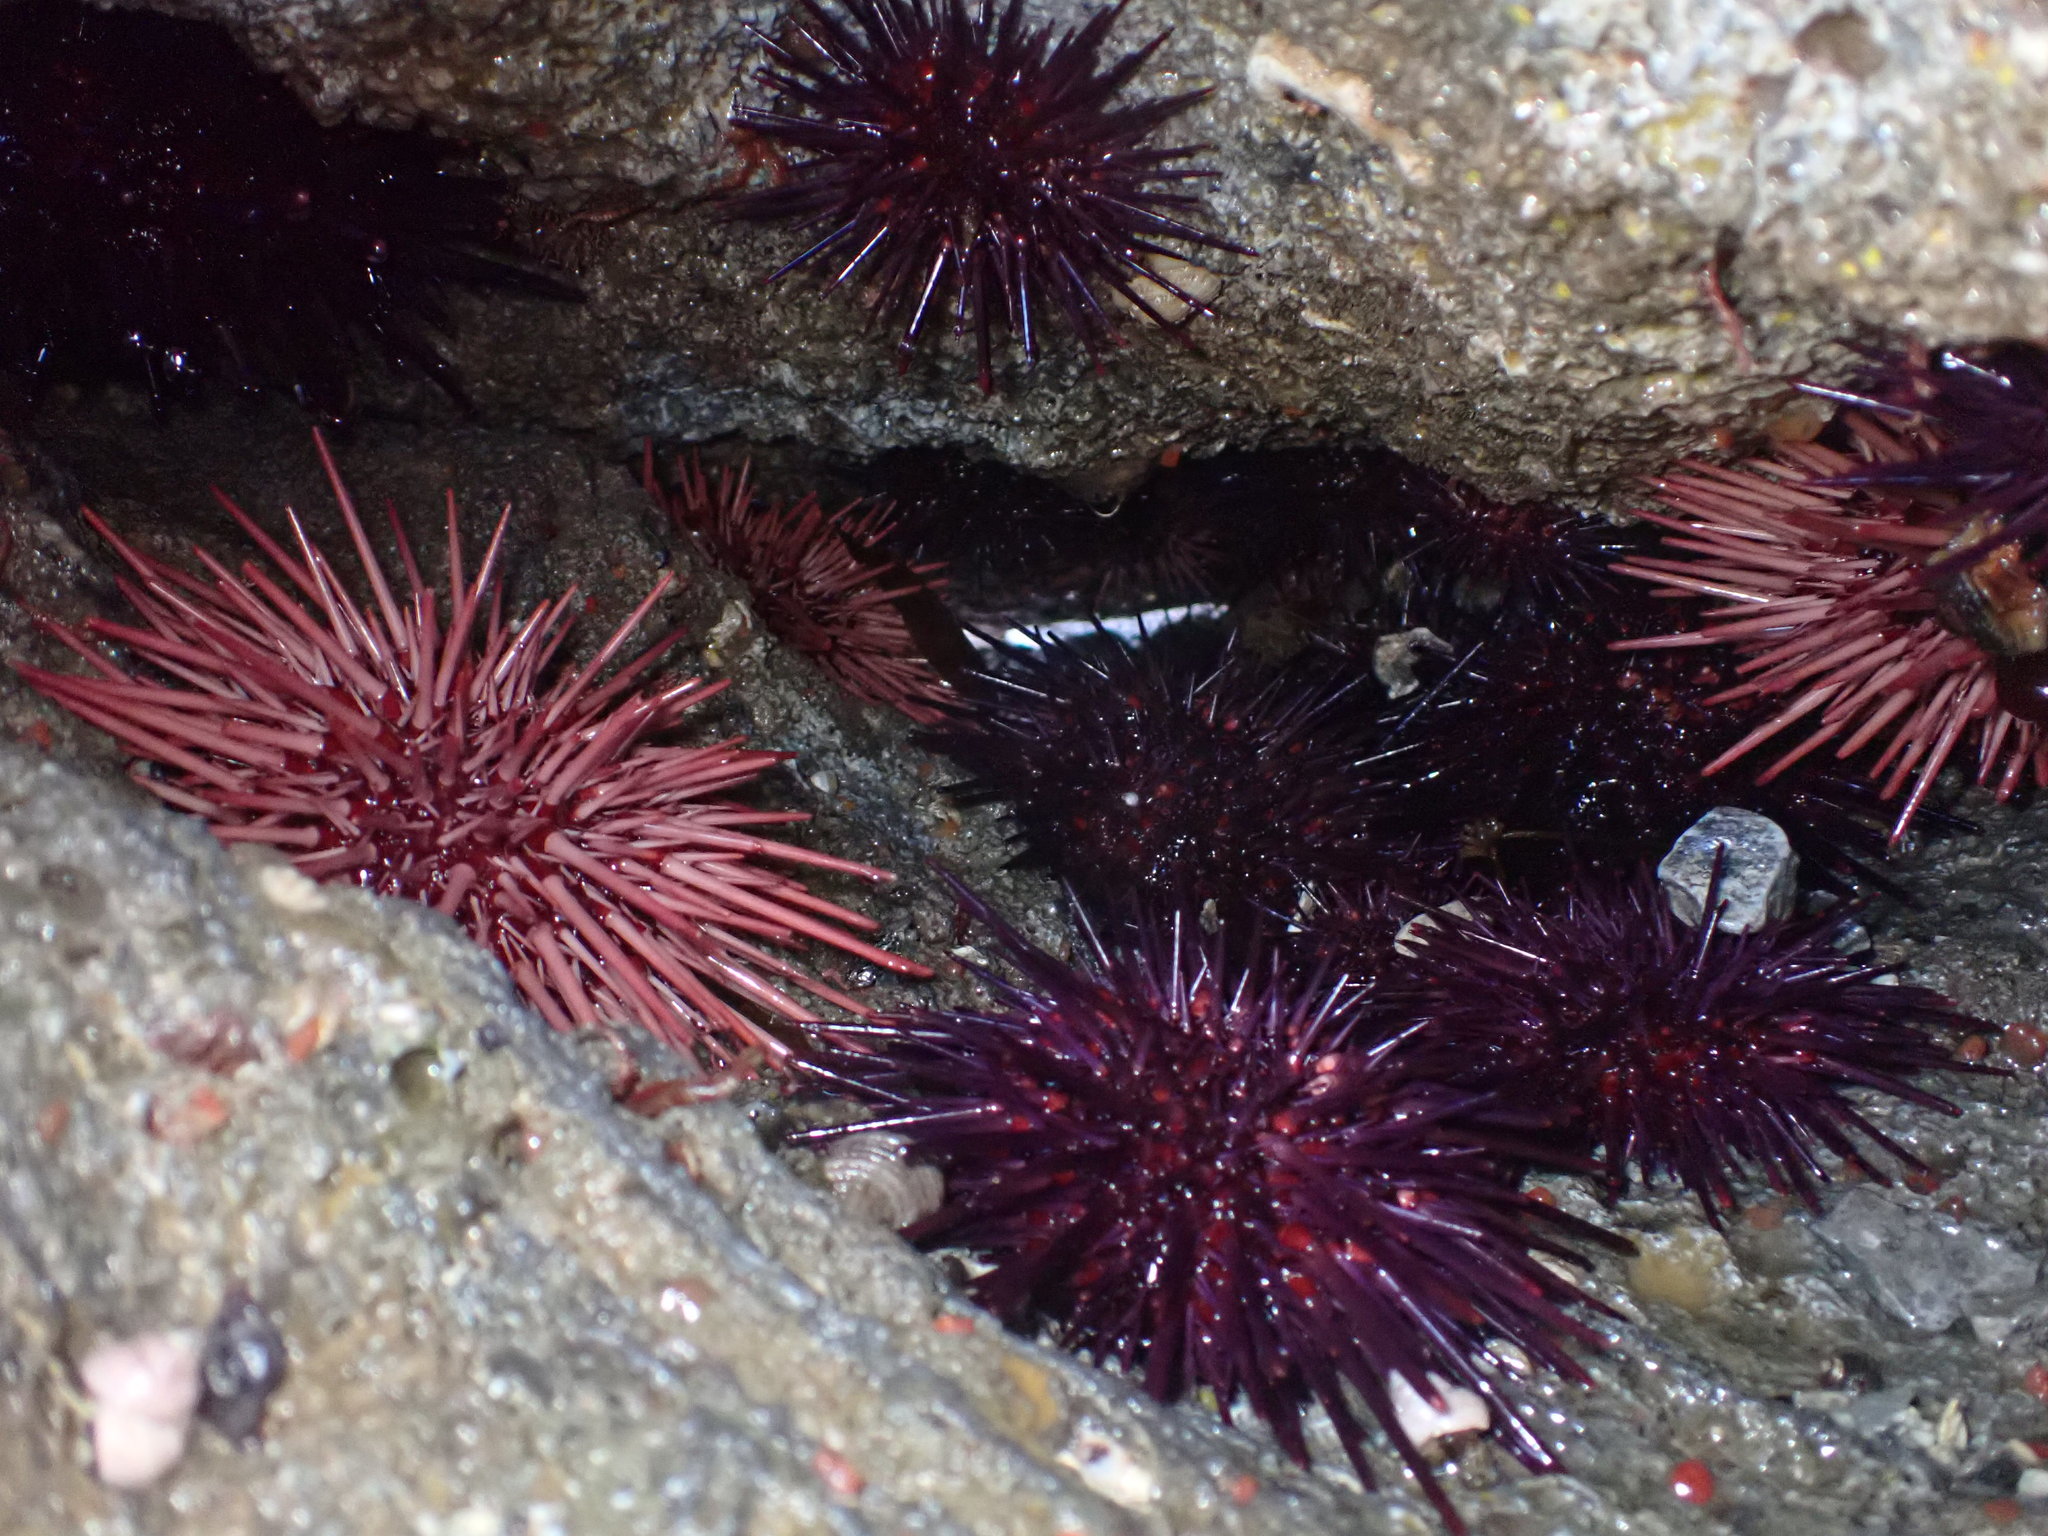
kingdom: Animalia
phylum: Echinodermata
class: Echinoidea
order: Camarodonta
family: Strongylocentrotidae
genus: Mesocentrotus
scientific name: Mesocentrotus franciscanus
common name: Red sea urchin
